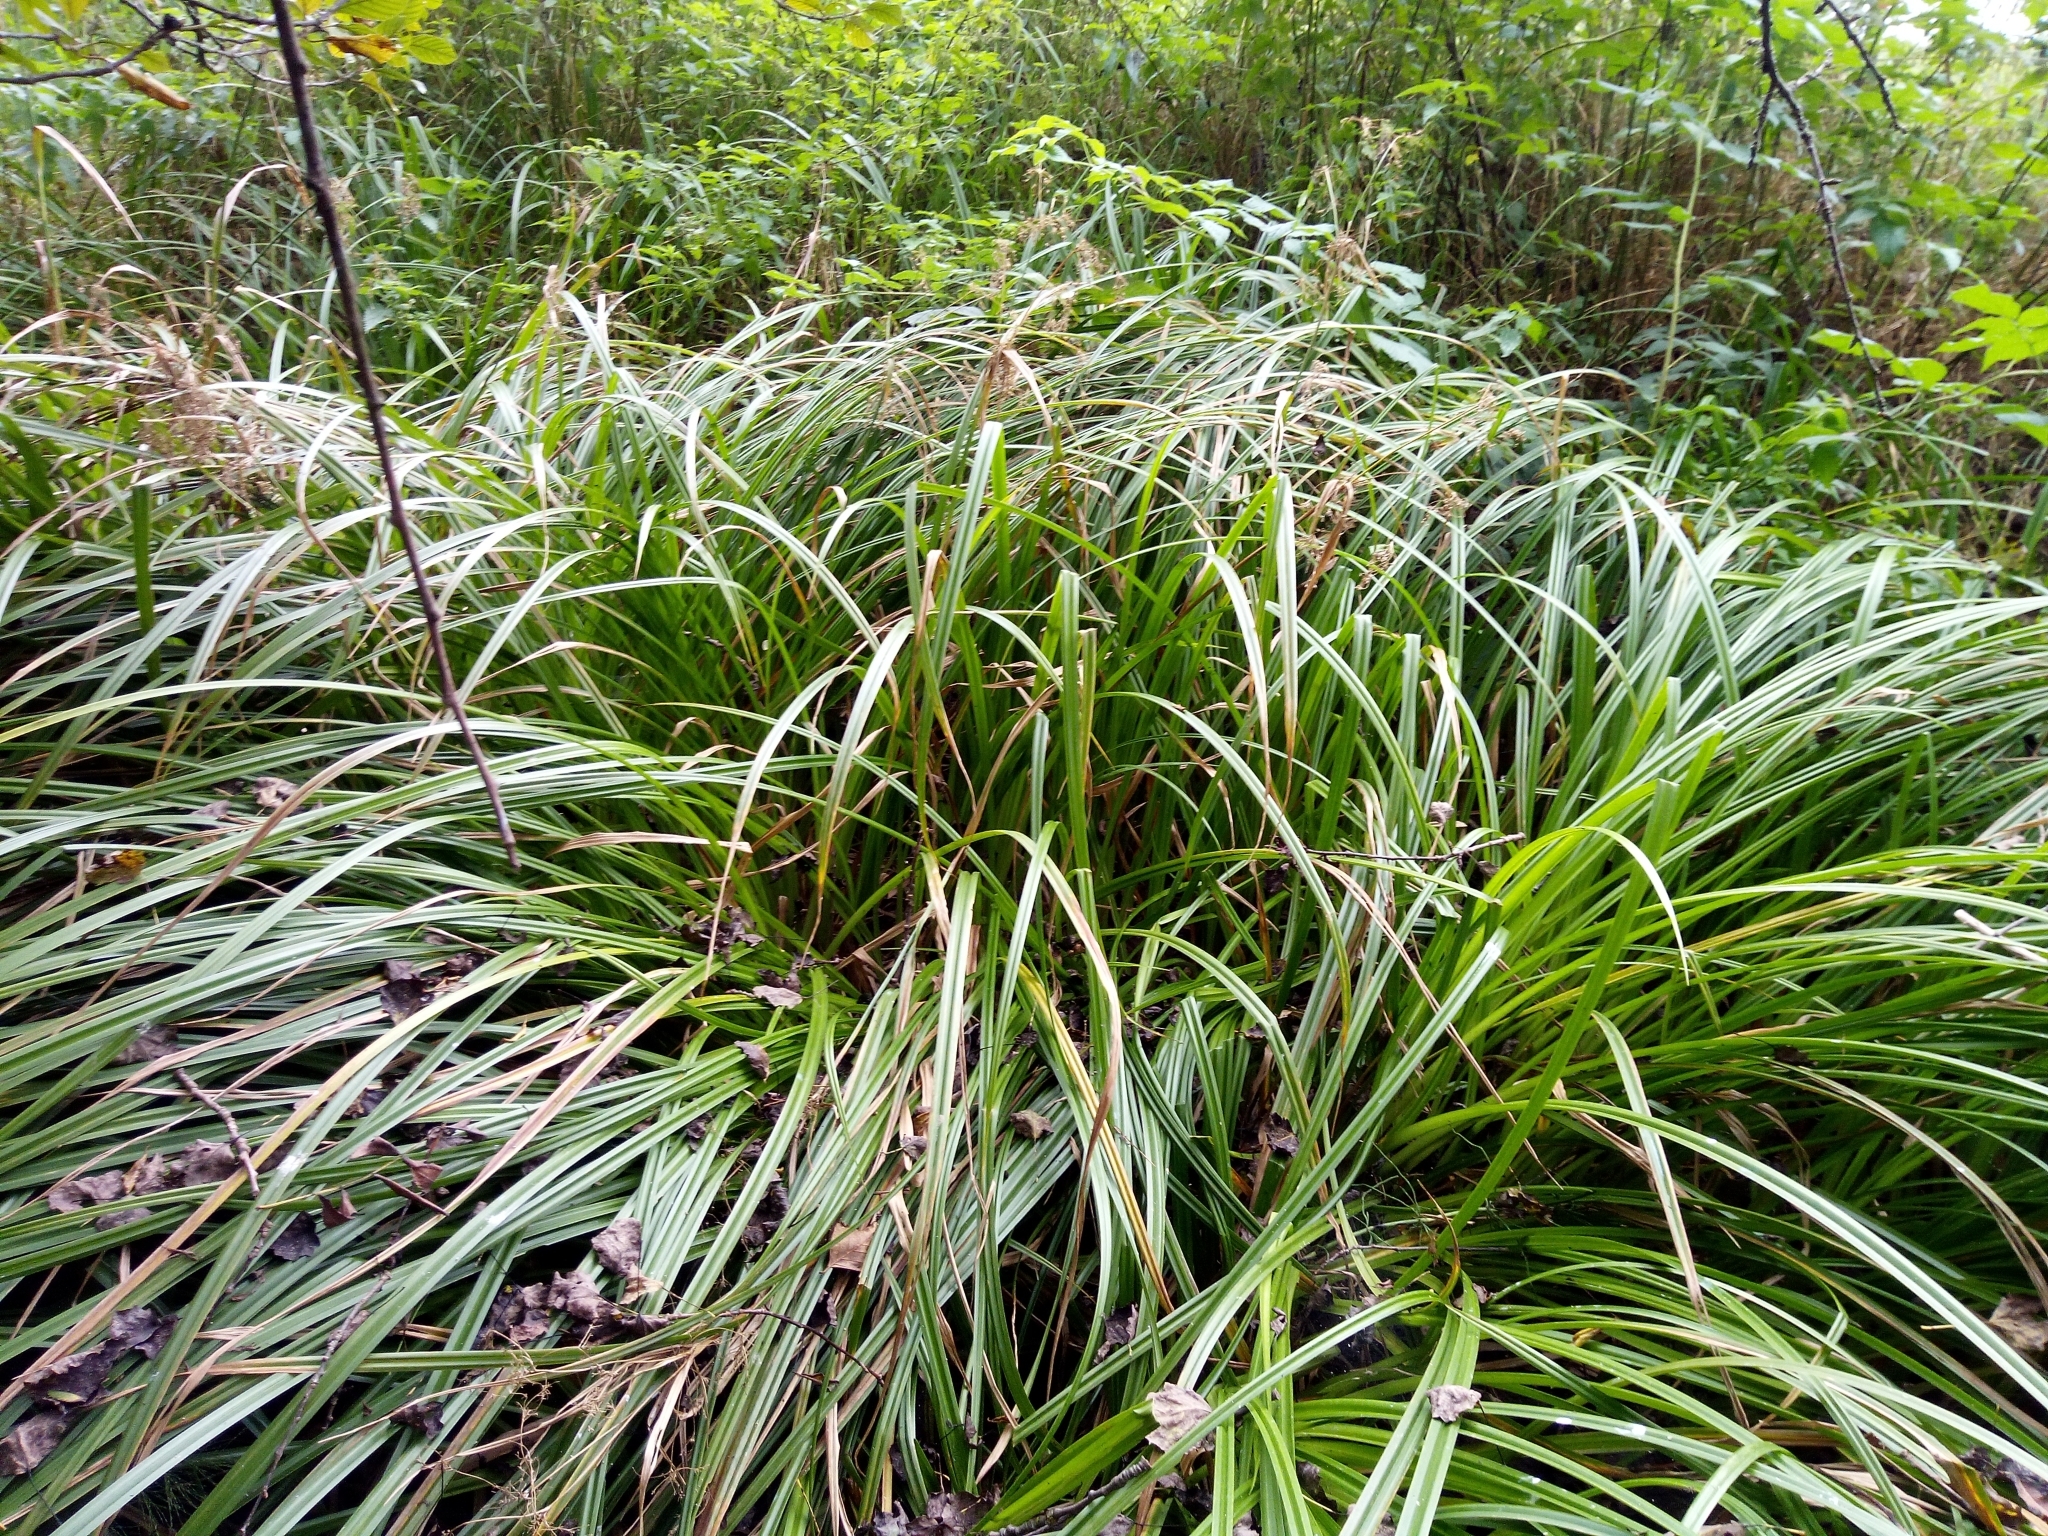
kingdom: Plantae
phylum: Tracheophyta
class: Liliopsida
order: Poales
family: Cyperaceae
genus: Scirpus
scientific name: Scirpus sylvaticus
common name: Wood club-rush
